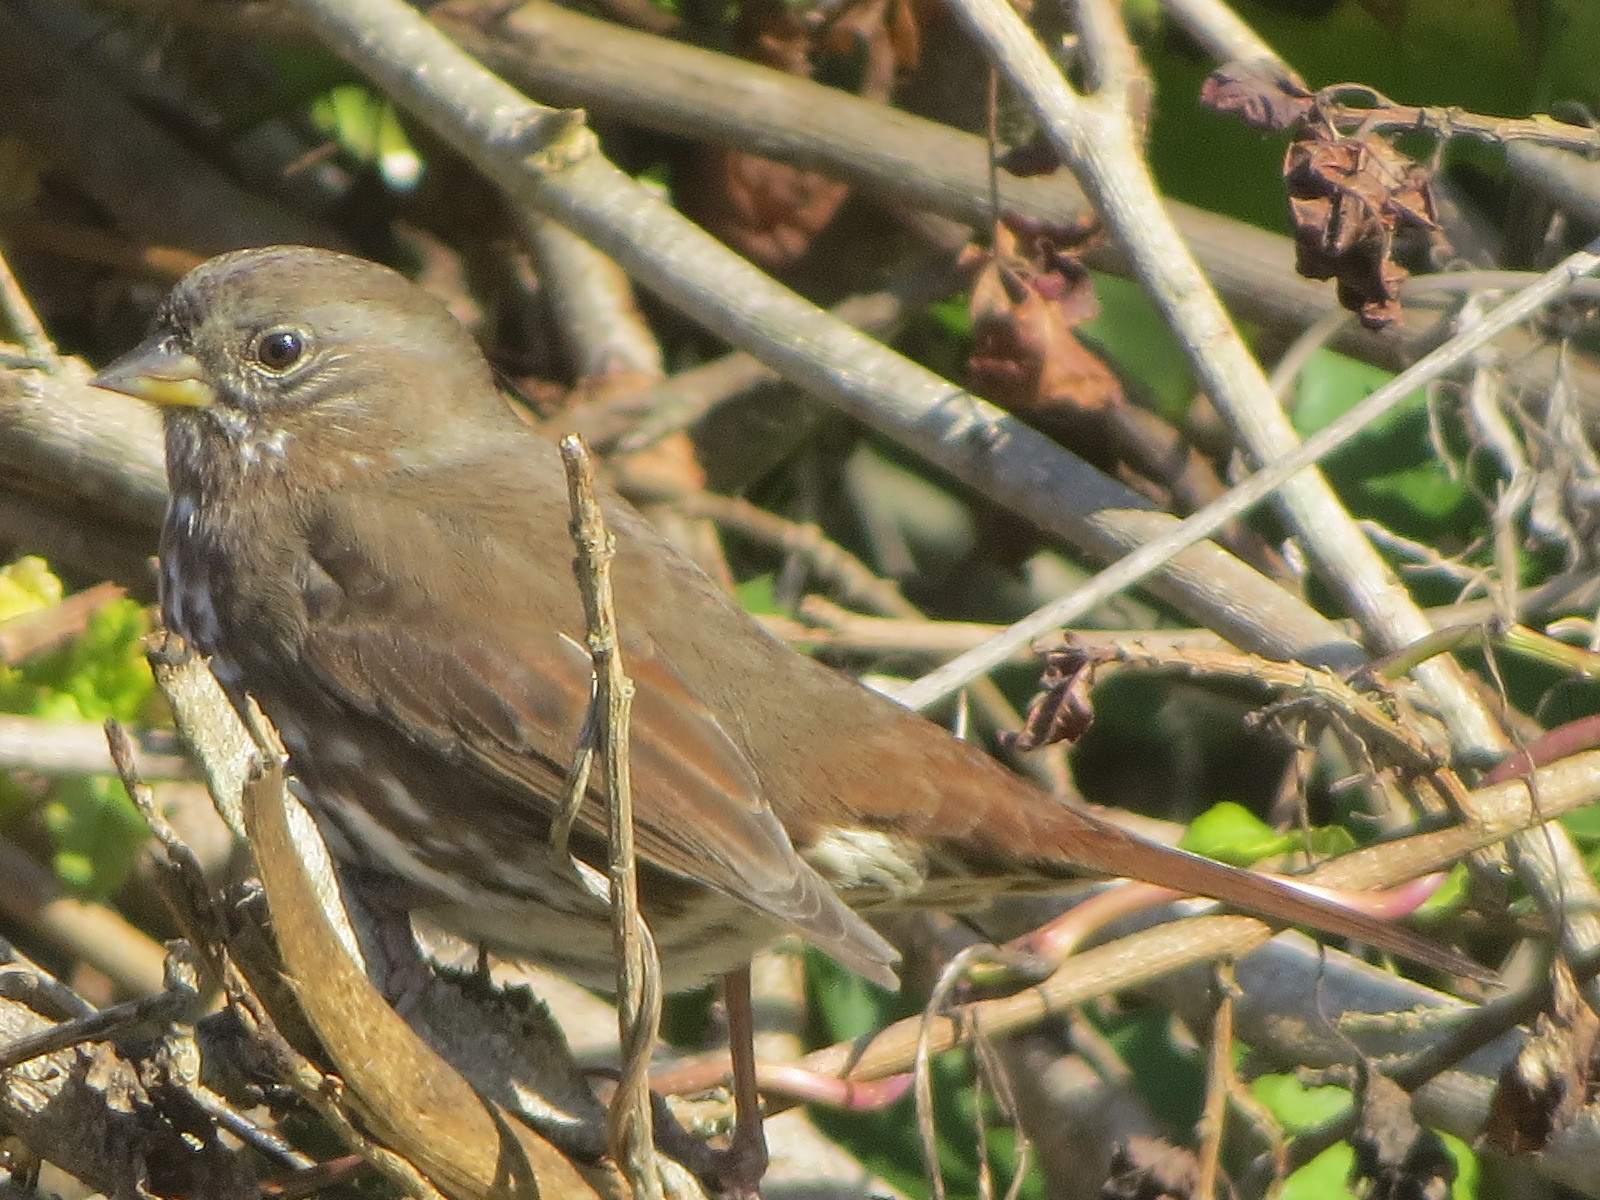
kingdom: Animalia
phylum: Chordata
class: Aves
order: Passeriformes
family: Passerellidae
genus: Passerella
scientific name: Passerella iliaca
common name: Fox sparrow
